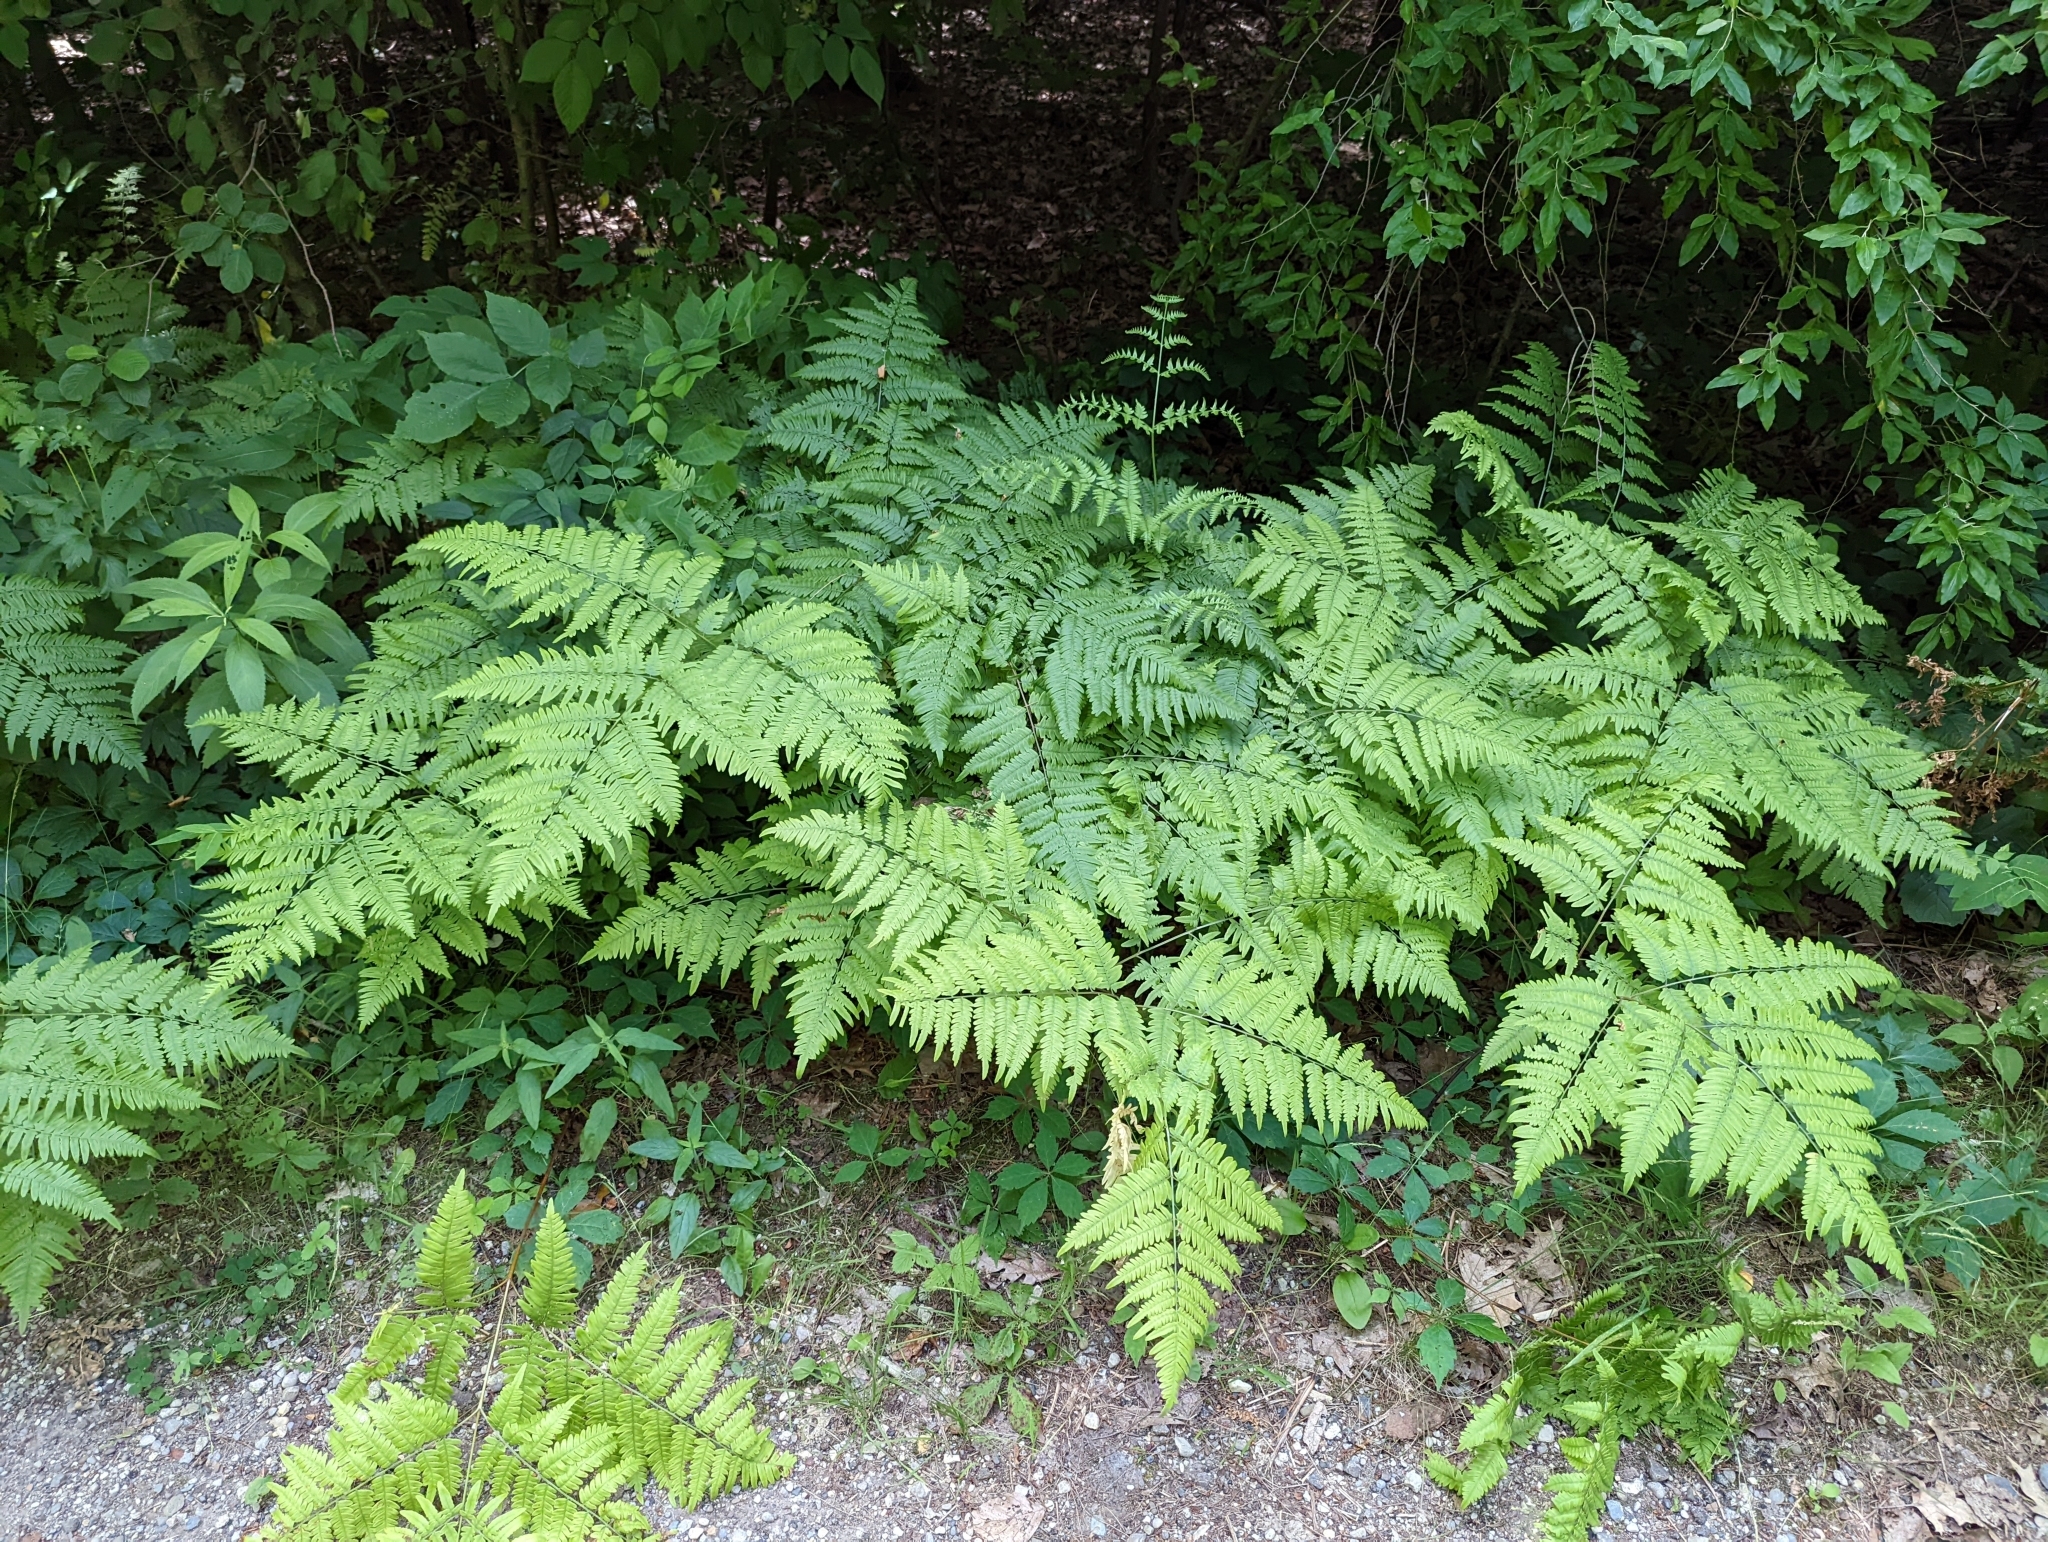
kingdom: Plantae
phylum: Tracheophyta
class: Polypodiopsida
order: Polypodiales
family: Dennstaedtiaceae
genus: Pteridium
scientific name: Pteridium aquilinum
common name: Bracken
